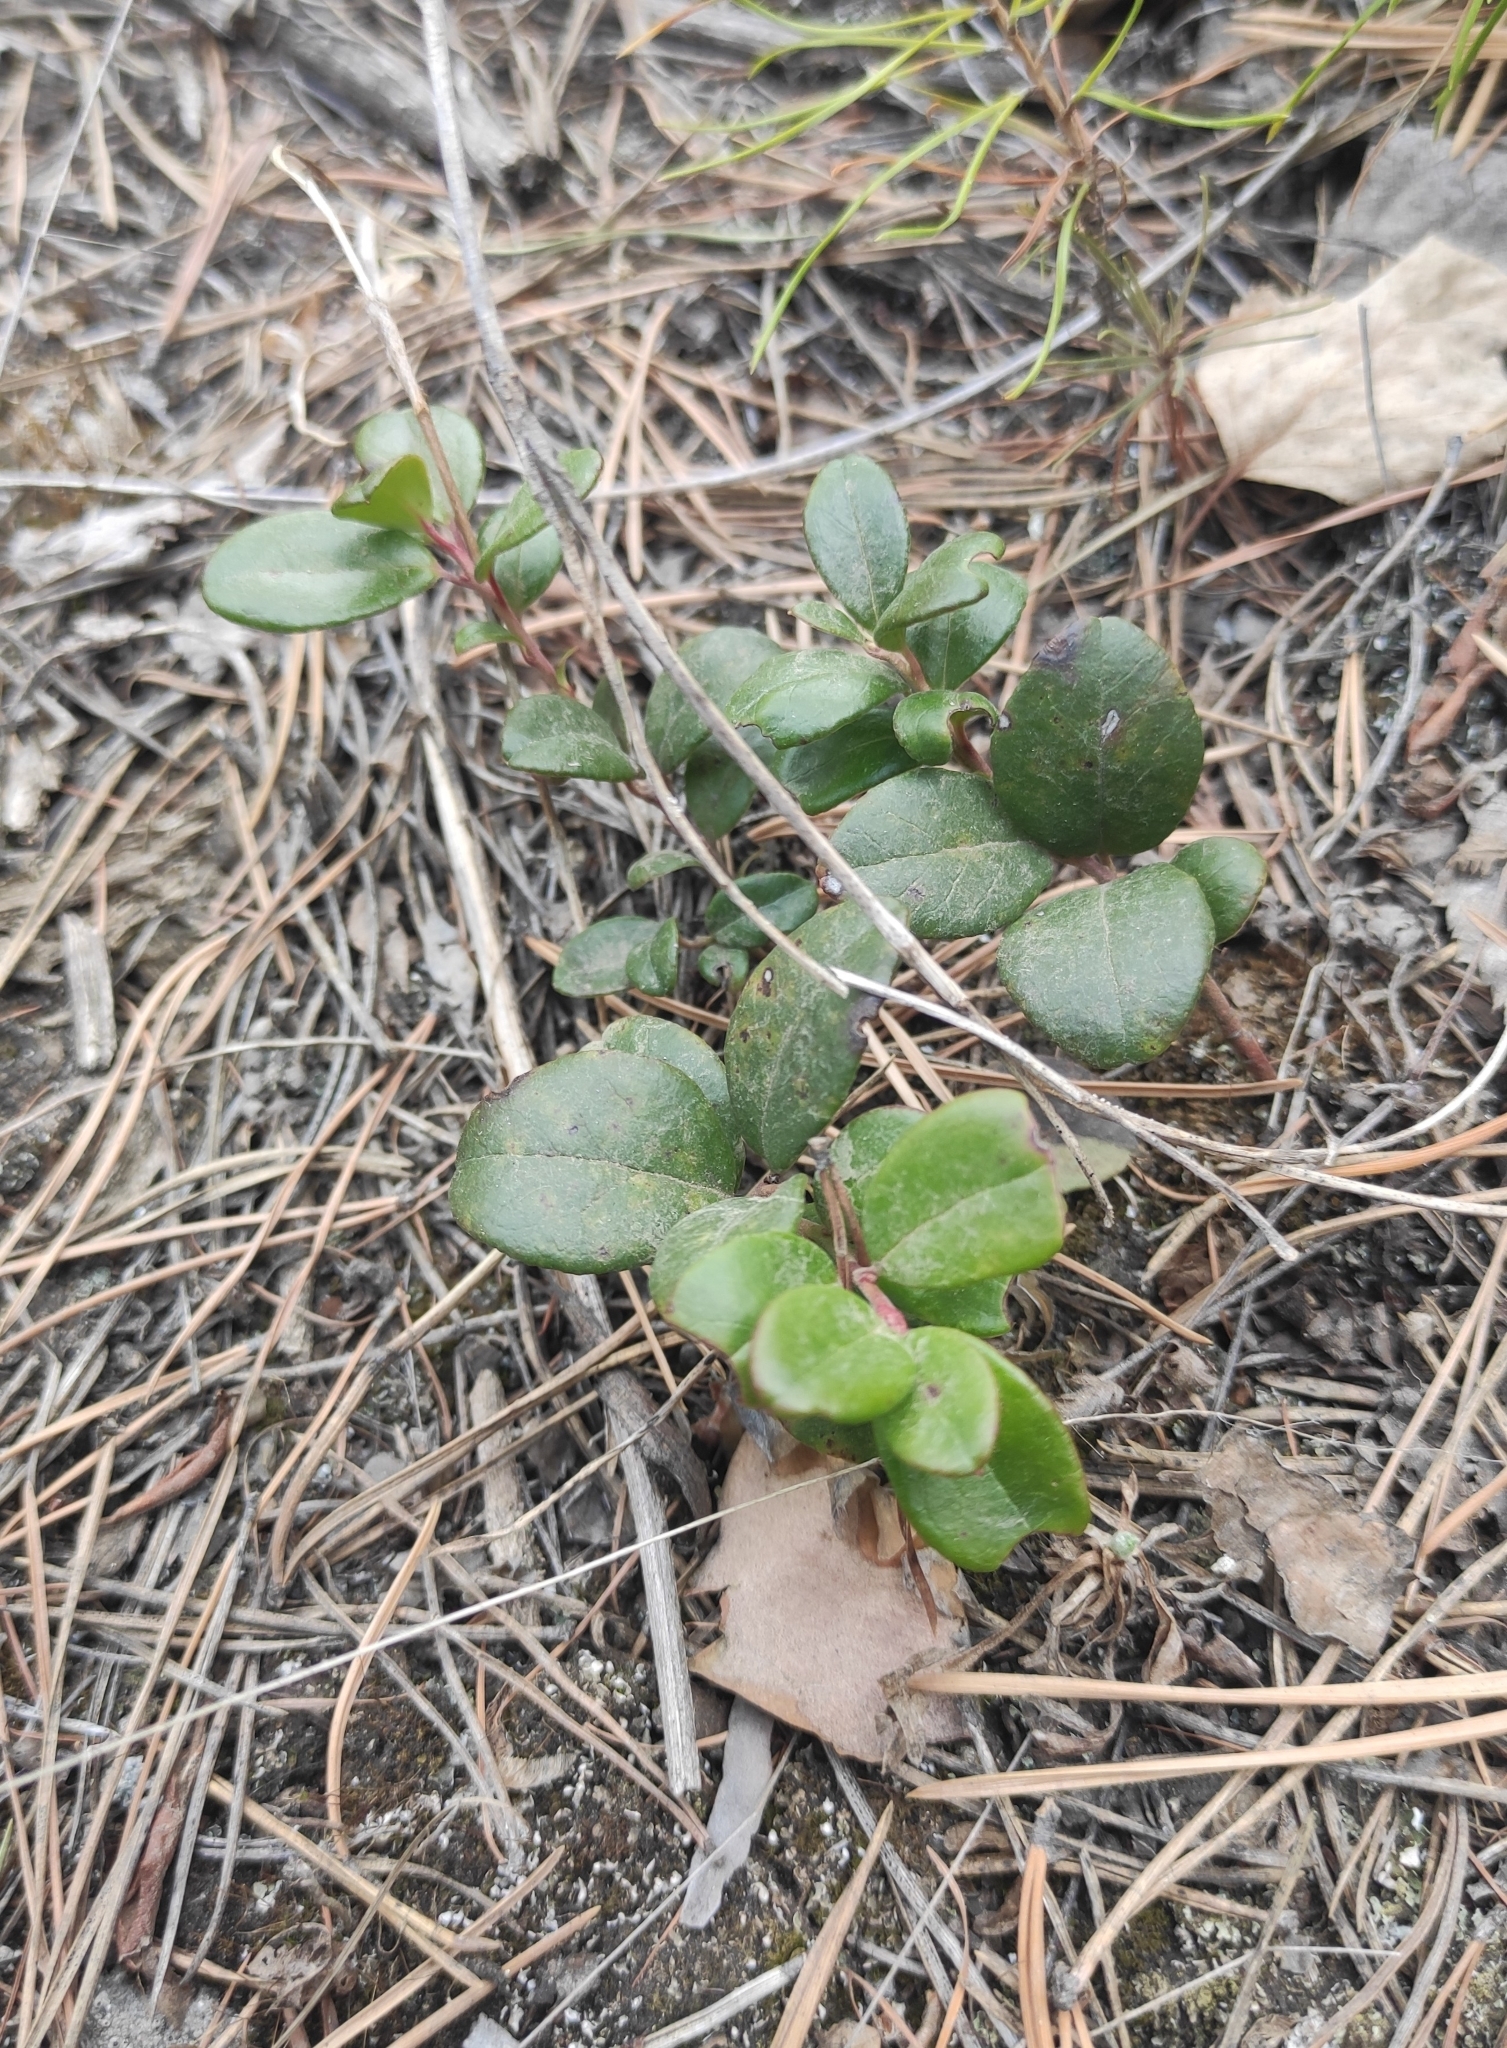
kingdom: Plantae
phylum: Tracheophyta
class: Magnoliopsida
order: Ericales
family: Ericaceae
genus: Vaccinium
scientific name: Vaccinium vitis-idaea
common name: Cowberry
